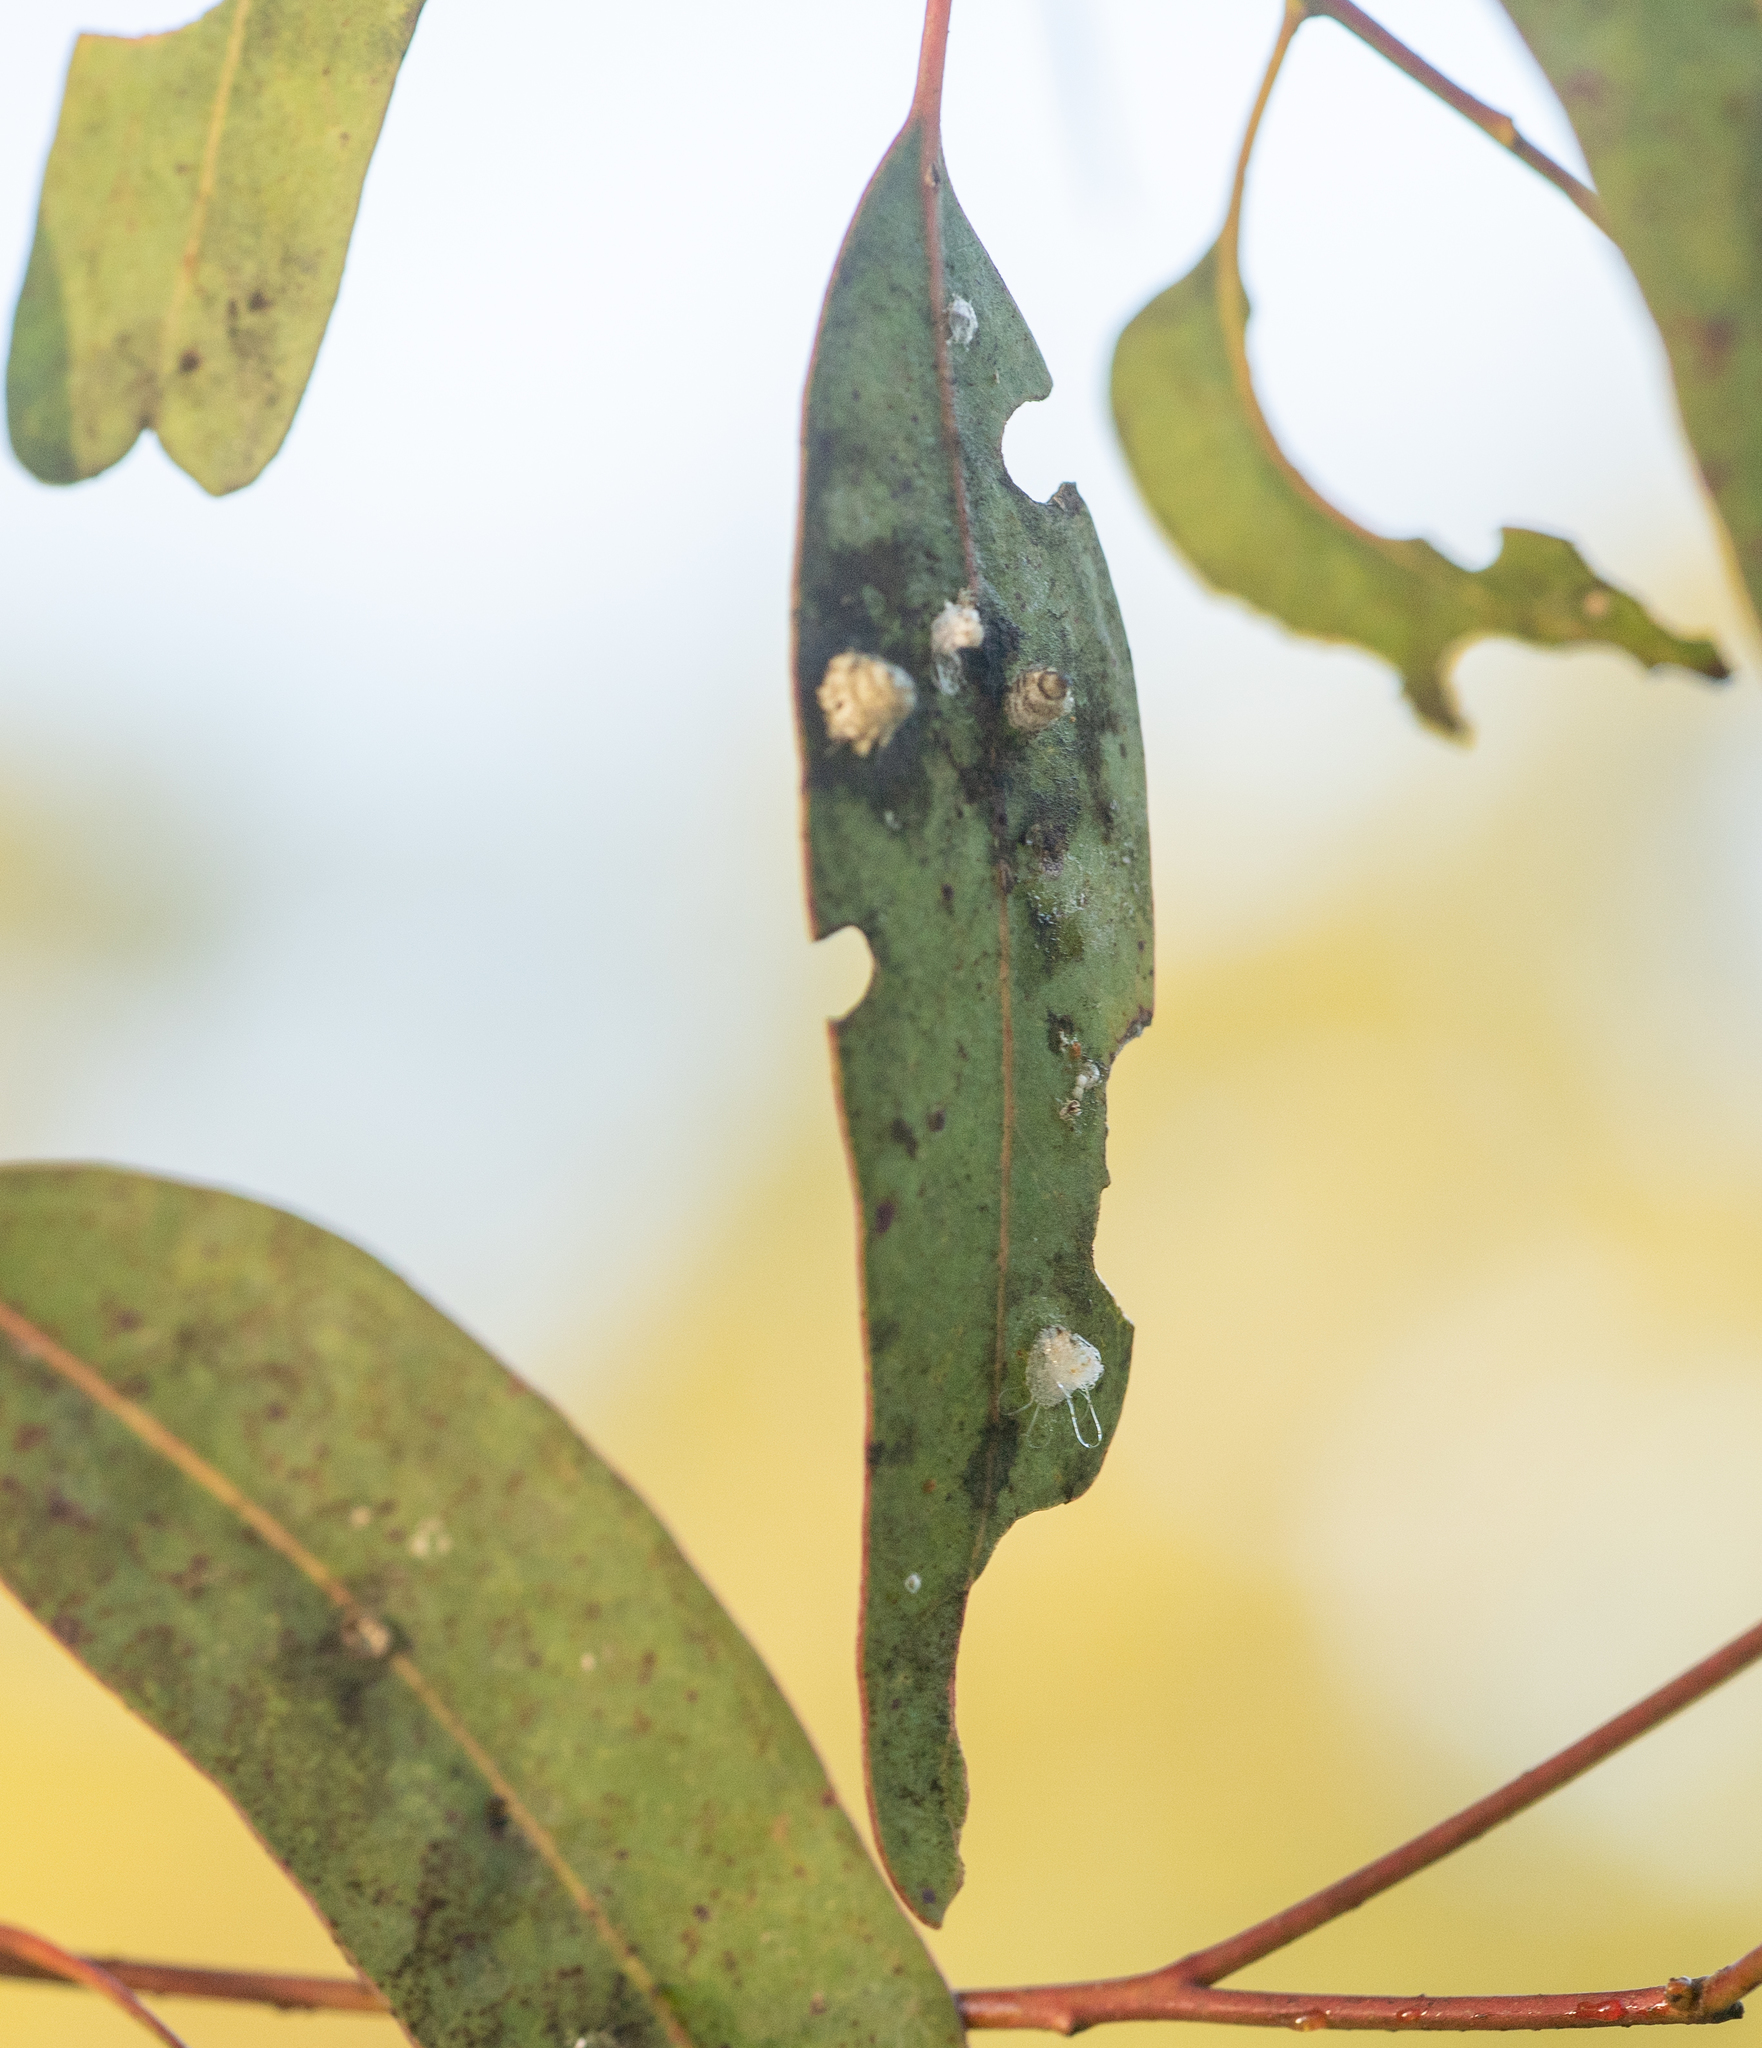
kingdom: Animalia
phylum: Arthropoda
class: Insecta
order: Hemiptera
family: Aphalaridae
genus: Glycaspis
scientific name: Glycaspis brimblecombei
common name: Red gum lerp psyllid
